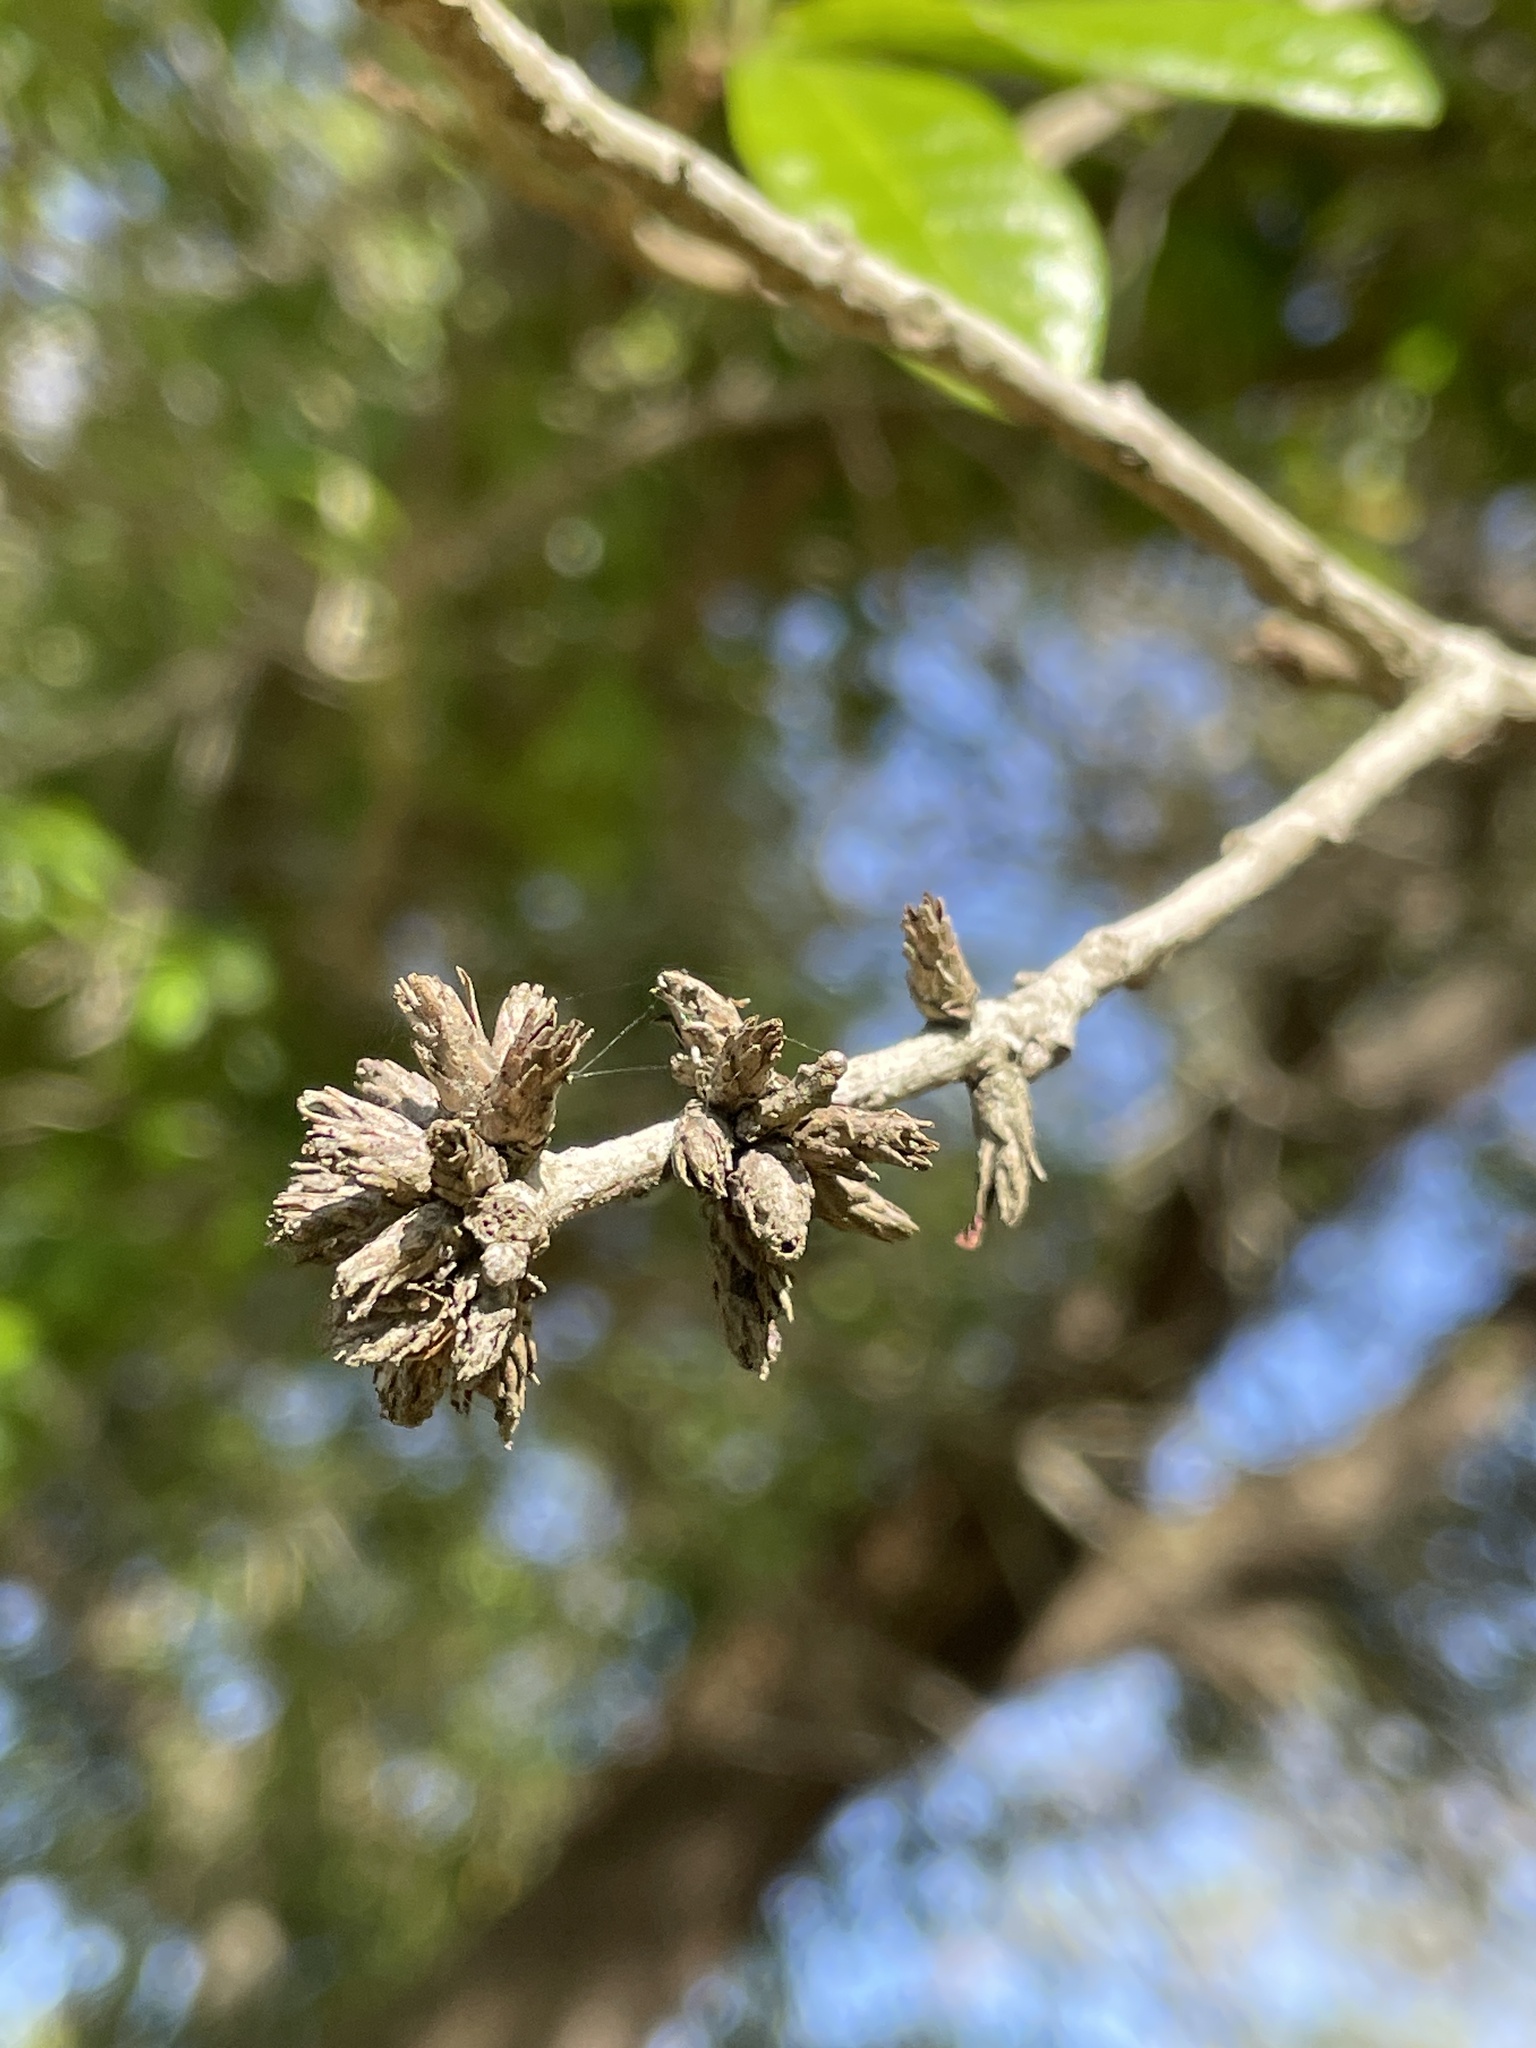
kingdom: Animalia
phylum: Arthropoda
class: Insecta
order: Diptera
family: Cecidomyiidae
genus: Arnoldiola
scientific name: Arnoldiola atra
